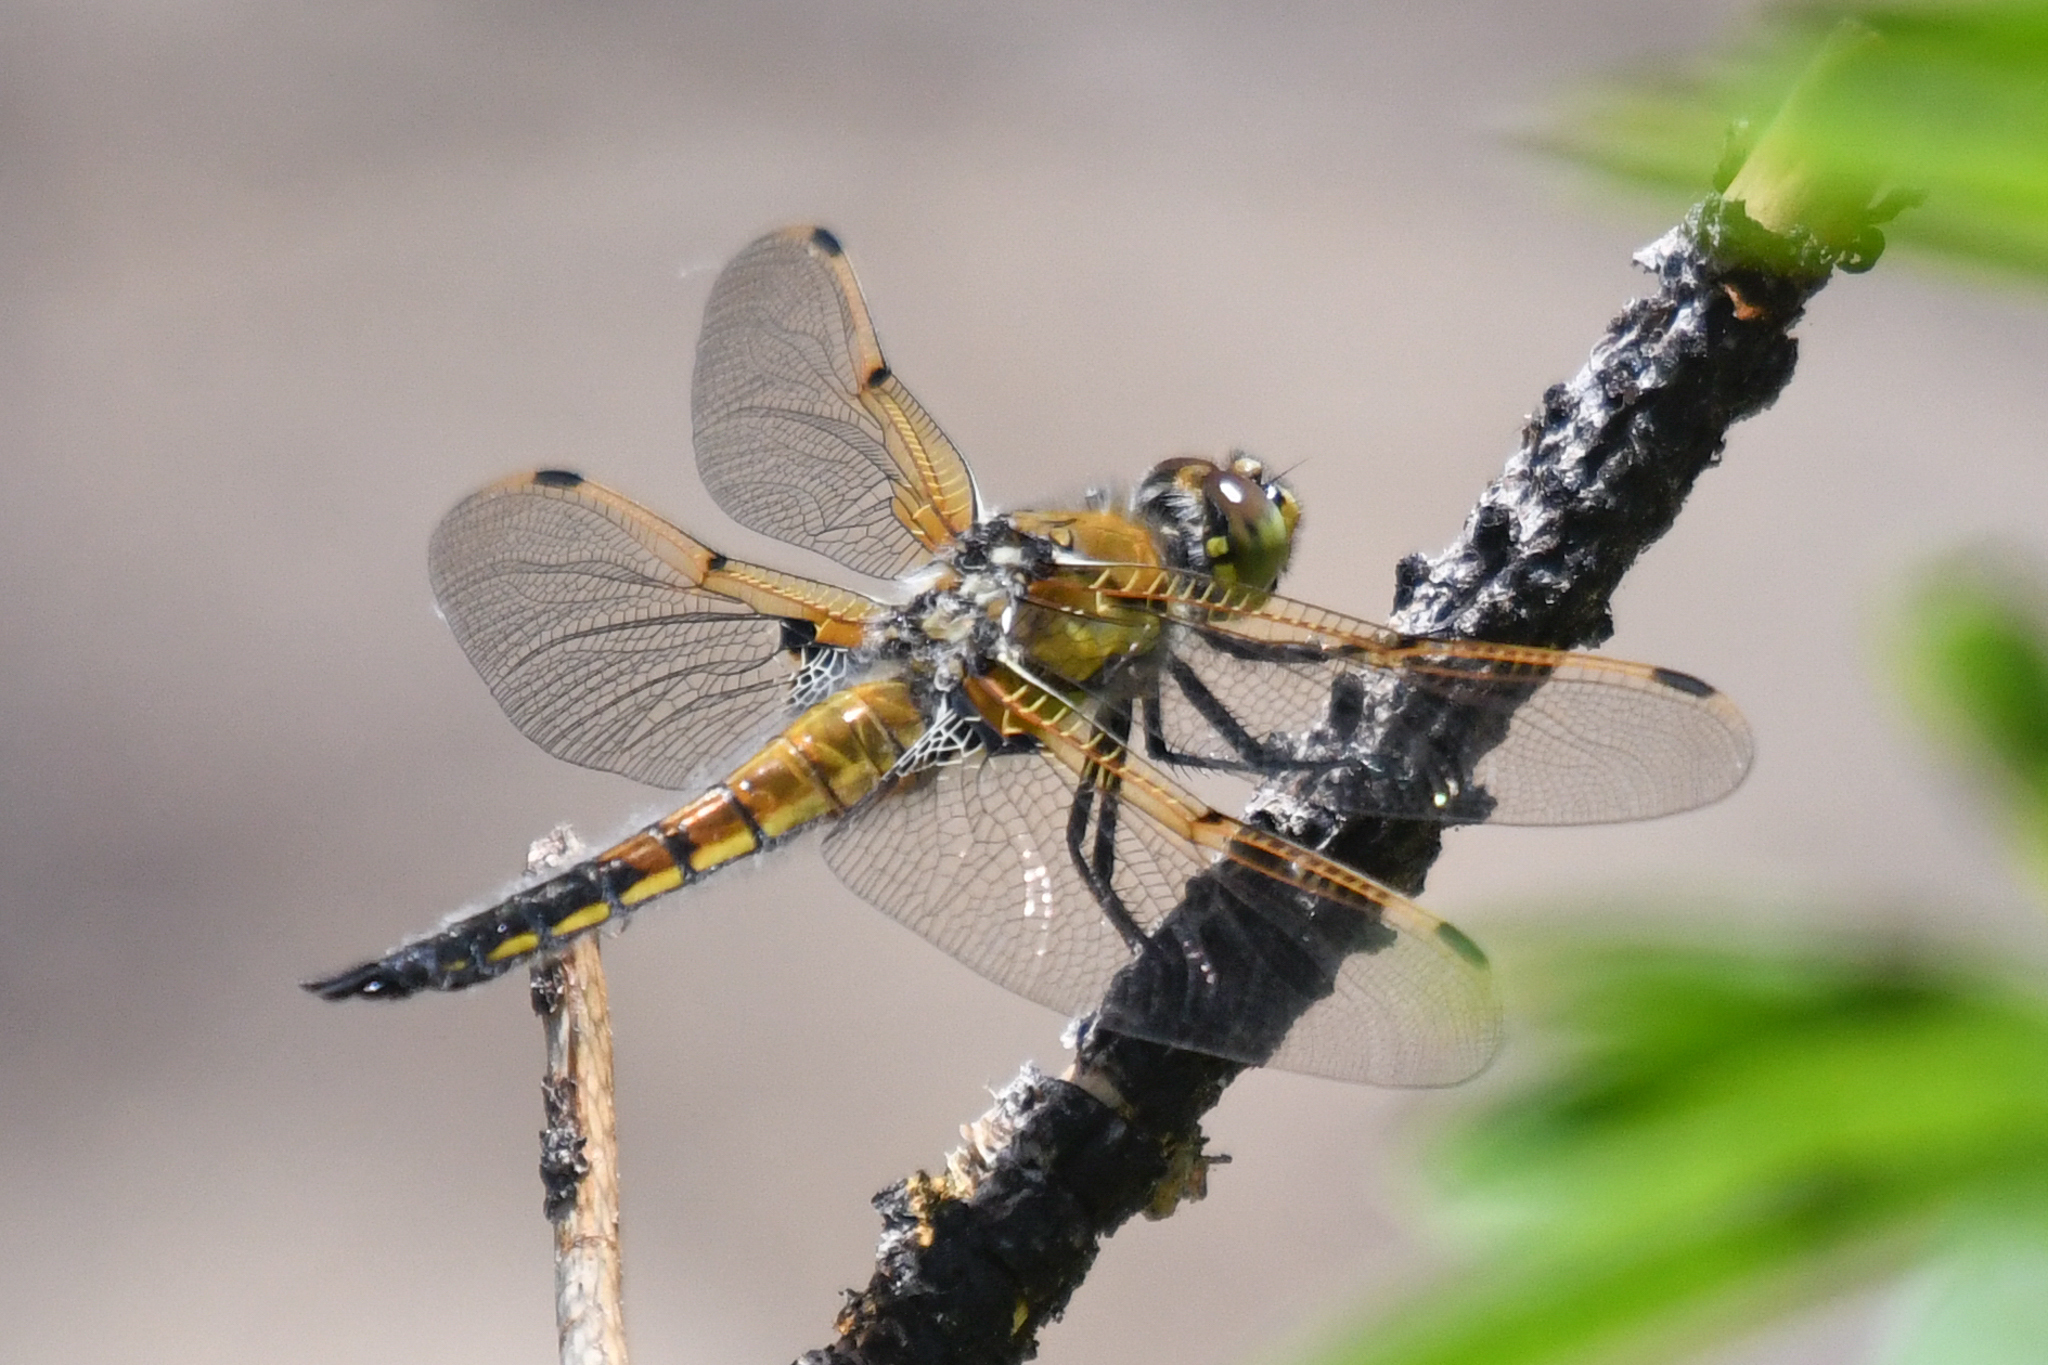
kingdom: Animalia
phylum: Arthropoda
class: Insecta
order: Odonata
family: Libellulidae
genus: Libellula
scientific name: Libellula quadrimaculata
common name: Four-spotted chaser
